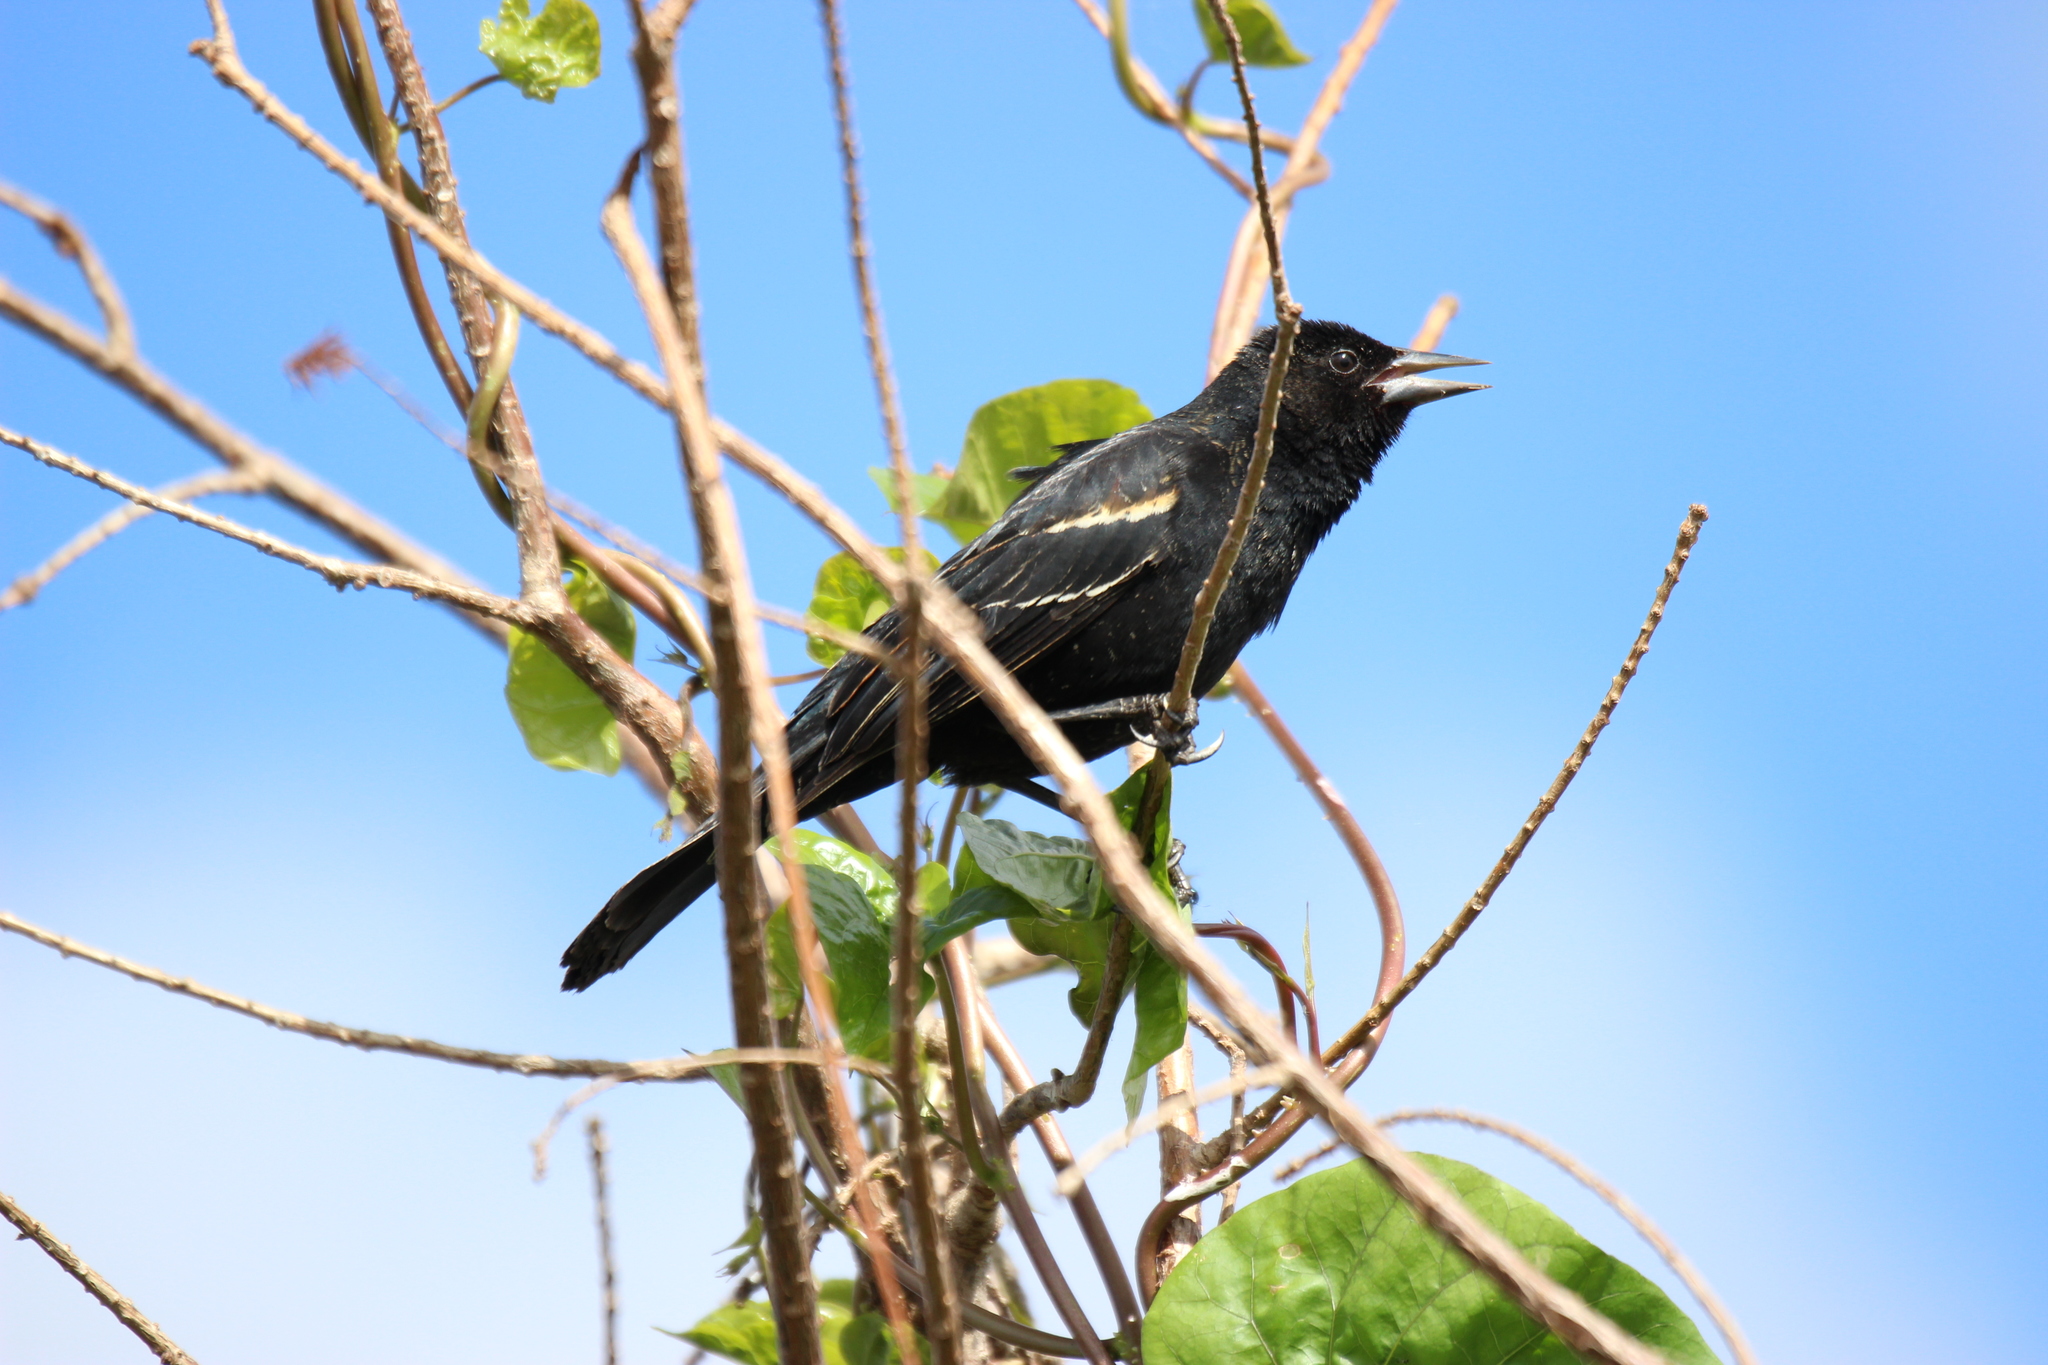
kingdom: Animalia
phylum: Chordata
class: Aves
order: Passeriformes
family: Icteridae
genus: Agelaius
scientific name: Agelaius phoeniceus
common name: Red-winged blackbird
